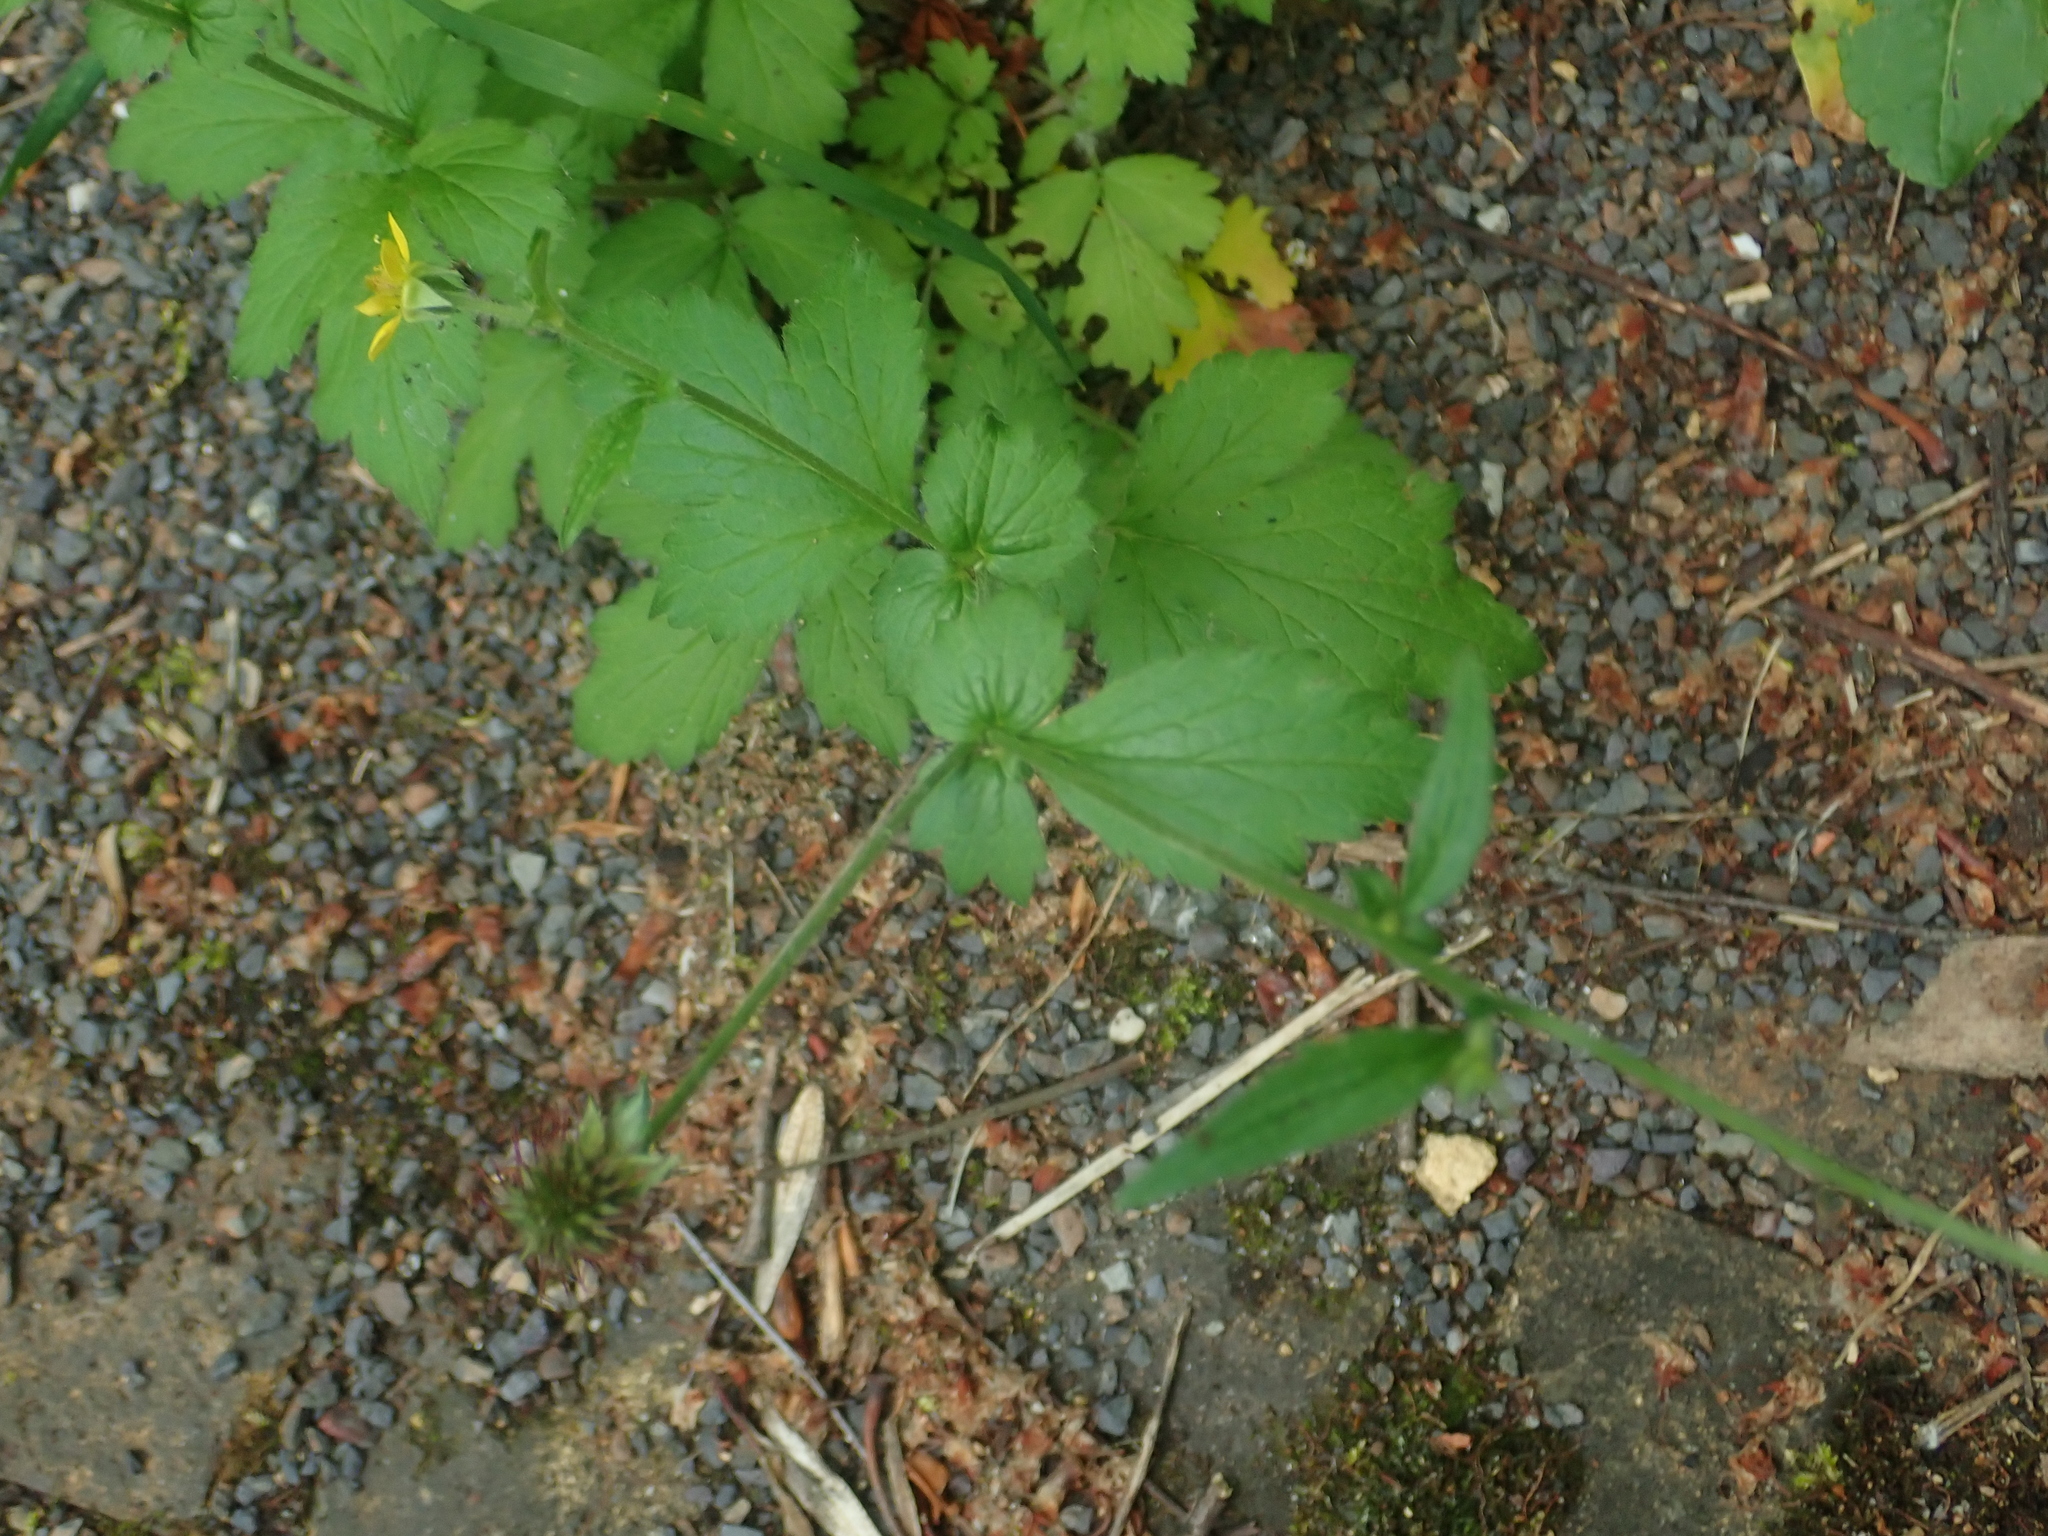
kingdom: Plantae
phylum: Tracheophyta
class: Magnoliopsida
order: Rosales
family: Rosaceae
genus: Geum
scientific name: Geum urbanum
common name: Wood avens
